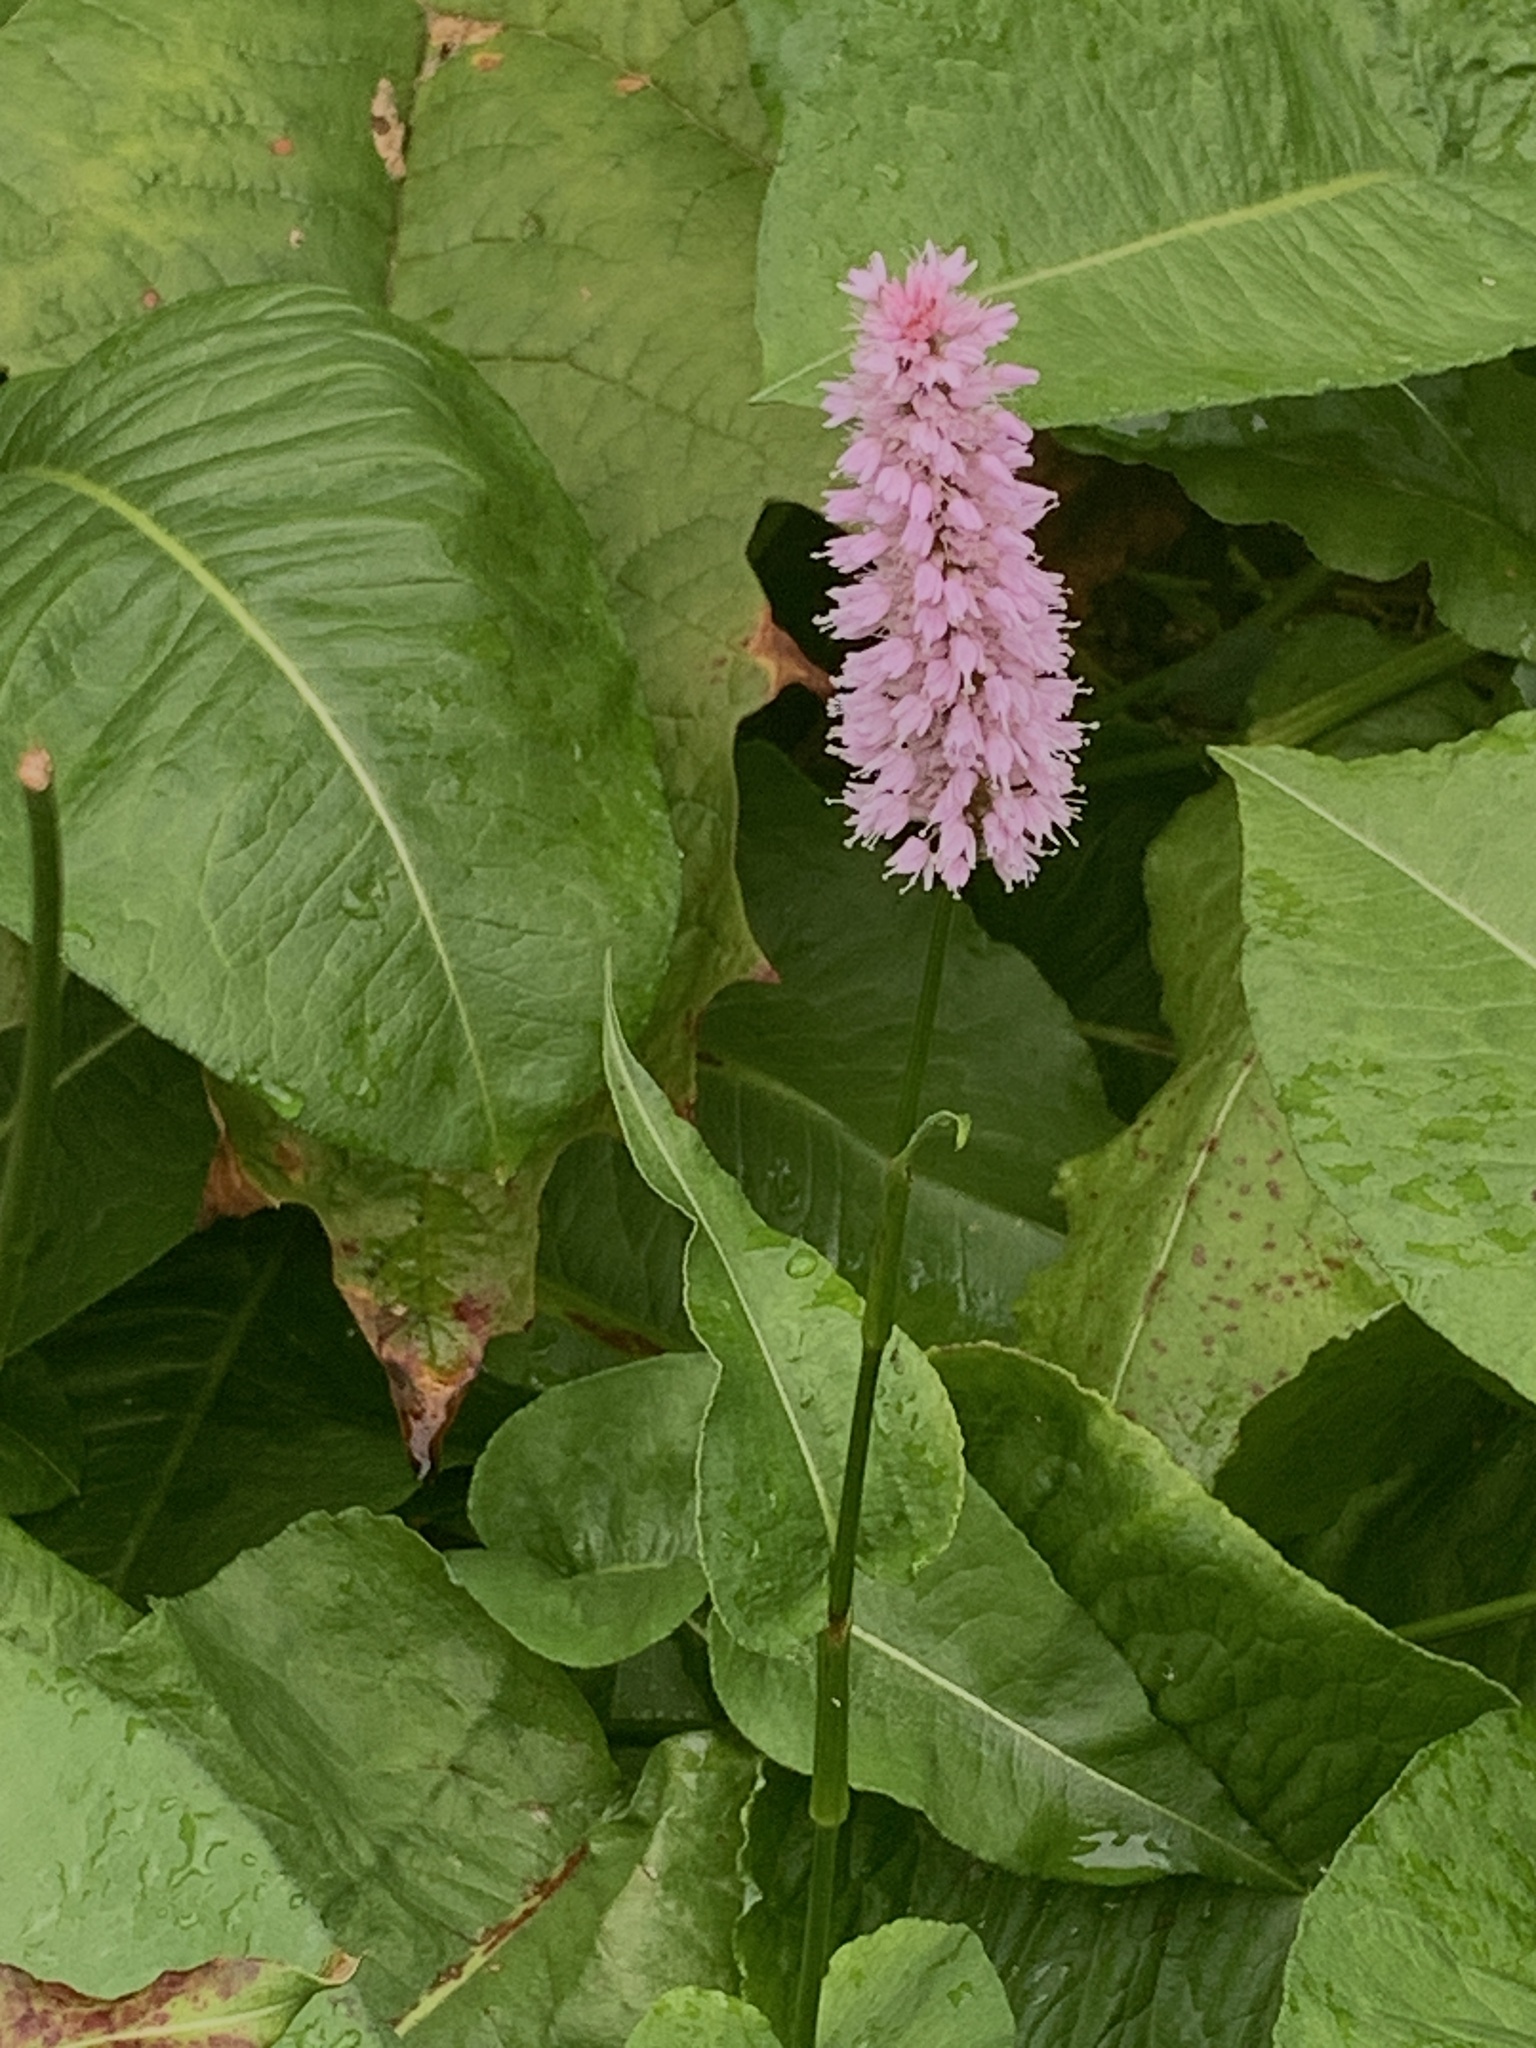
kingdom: Plantae
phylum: Tracheophyta
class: Magnoliopsida
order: Caryophyllales
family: Polygonaceae
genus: Bistorta
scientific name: Bistorta officinalis
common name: Common bistort
